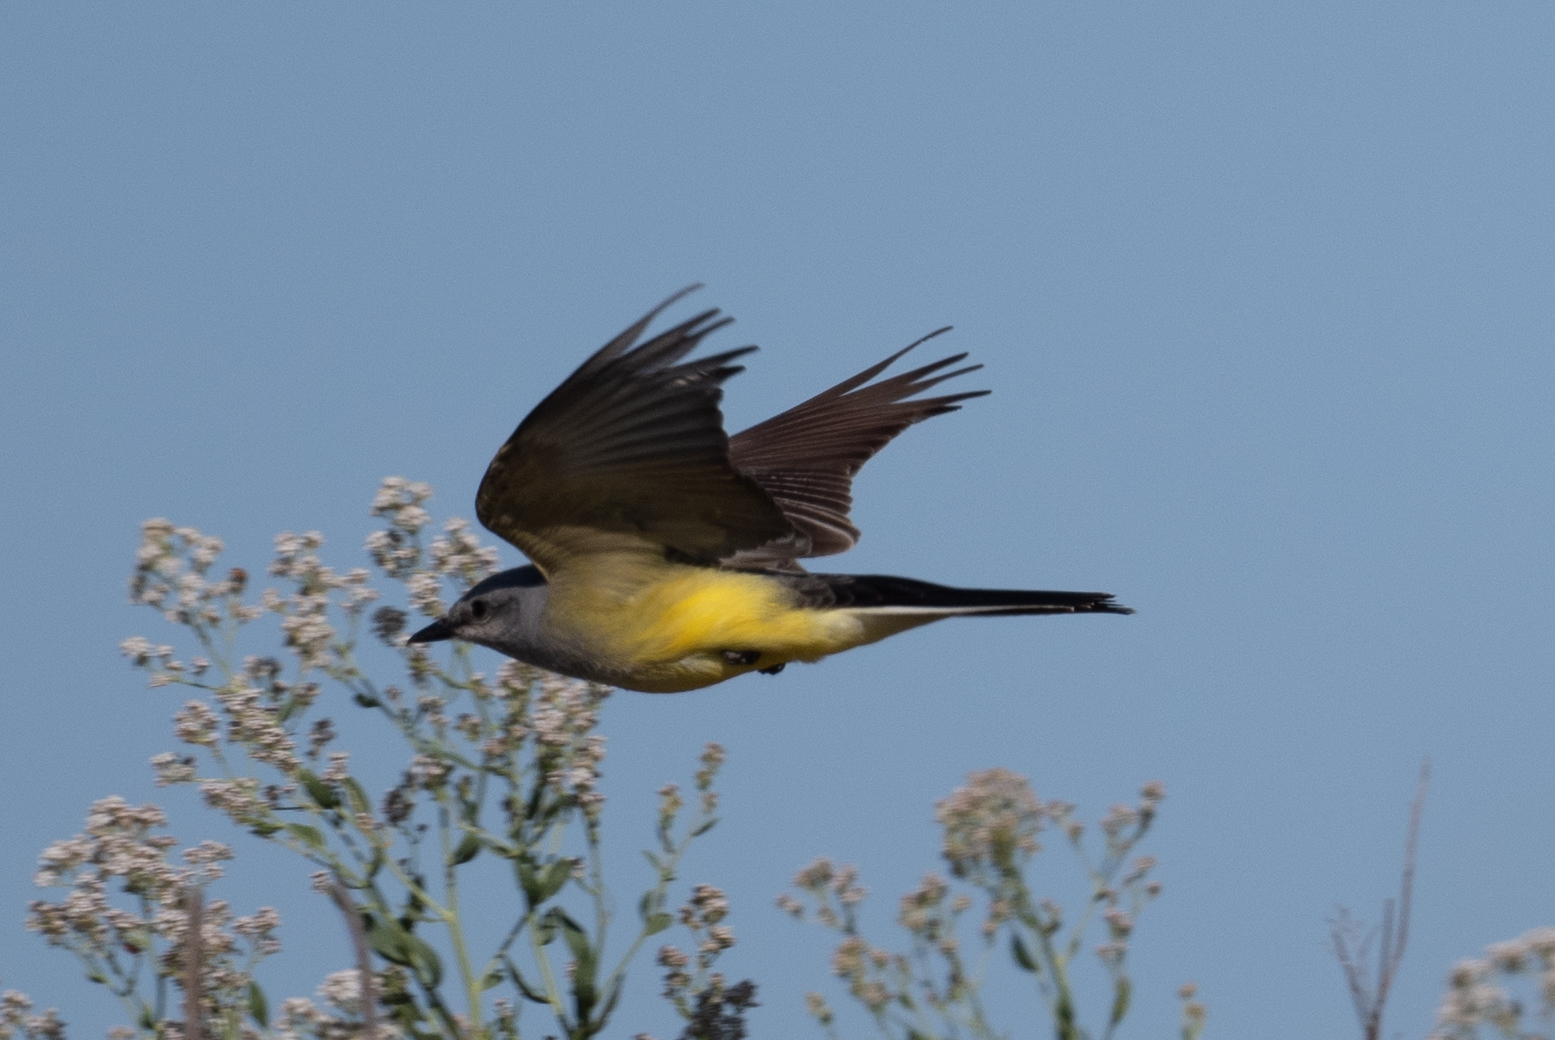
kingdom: Animalia
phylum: Chordata
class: Aves
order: Passeriformes
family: Tyrannidae
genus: Tyrannus
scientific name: Tyrannus verticalis
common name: Western kingbird
